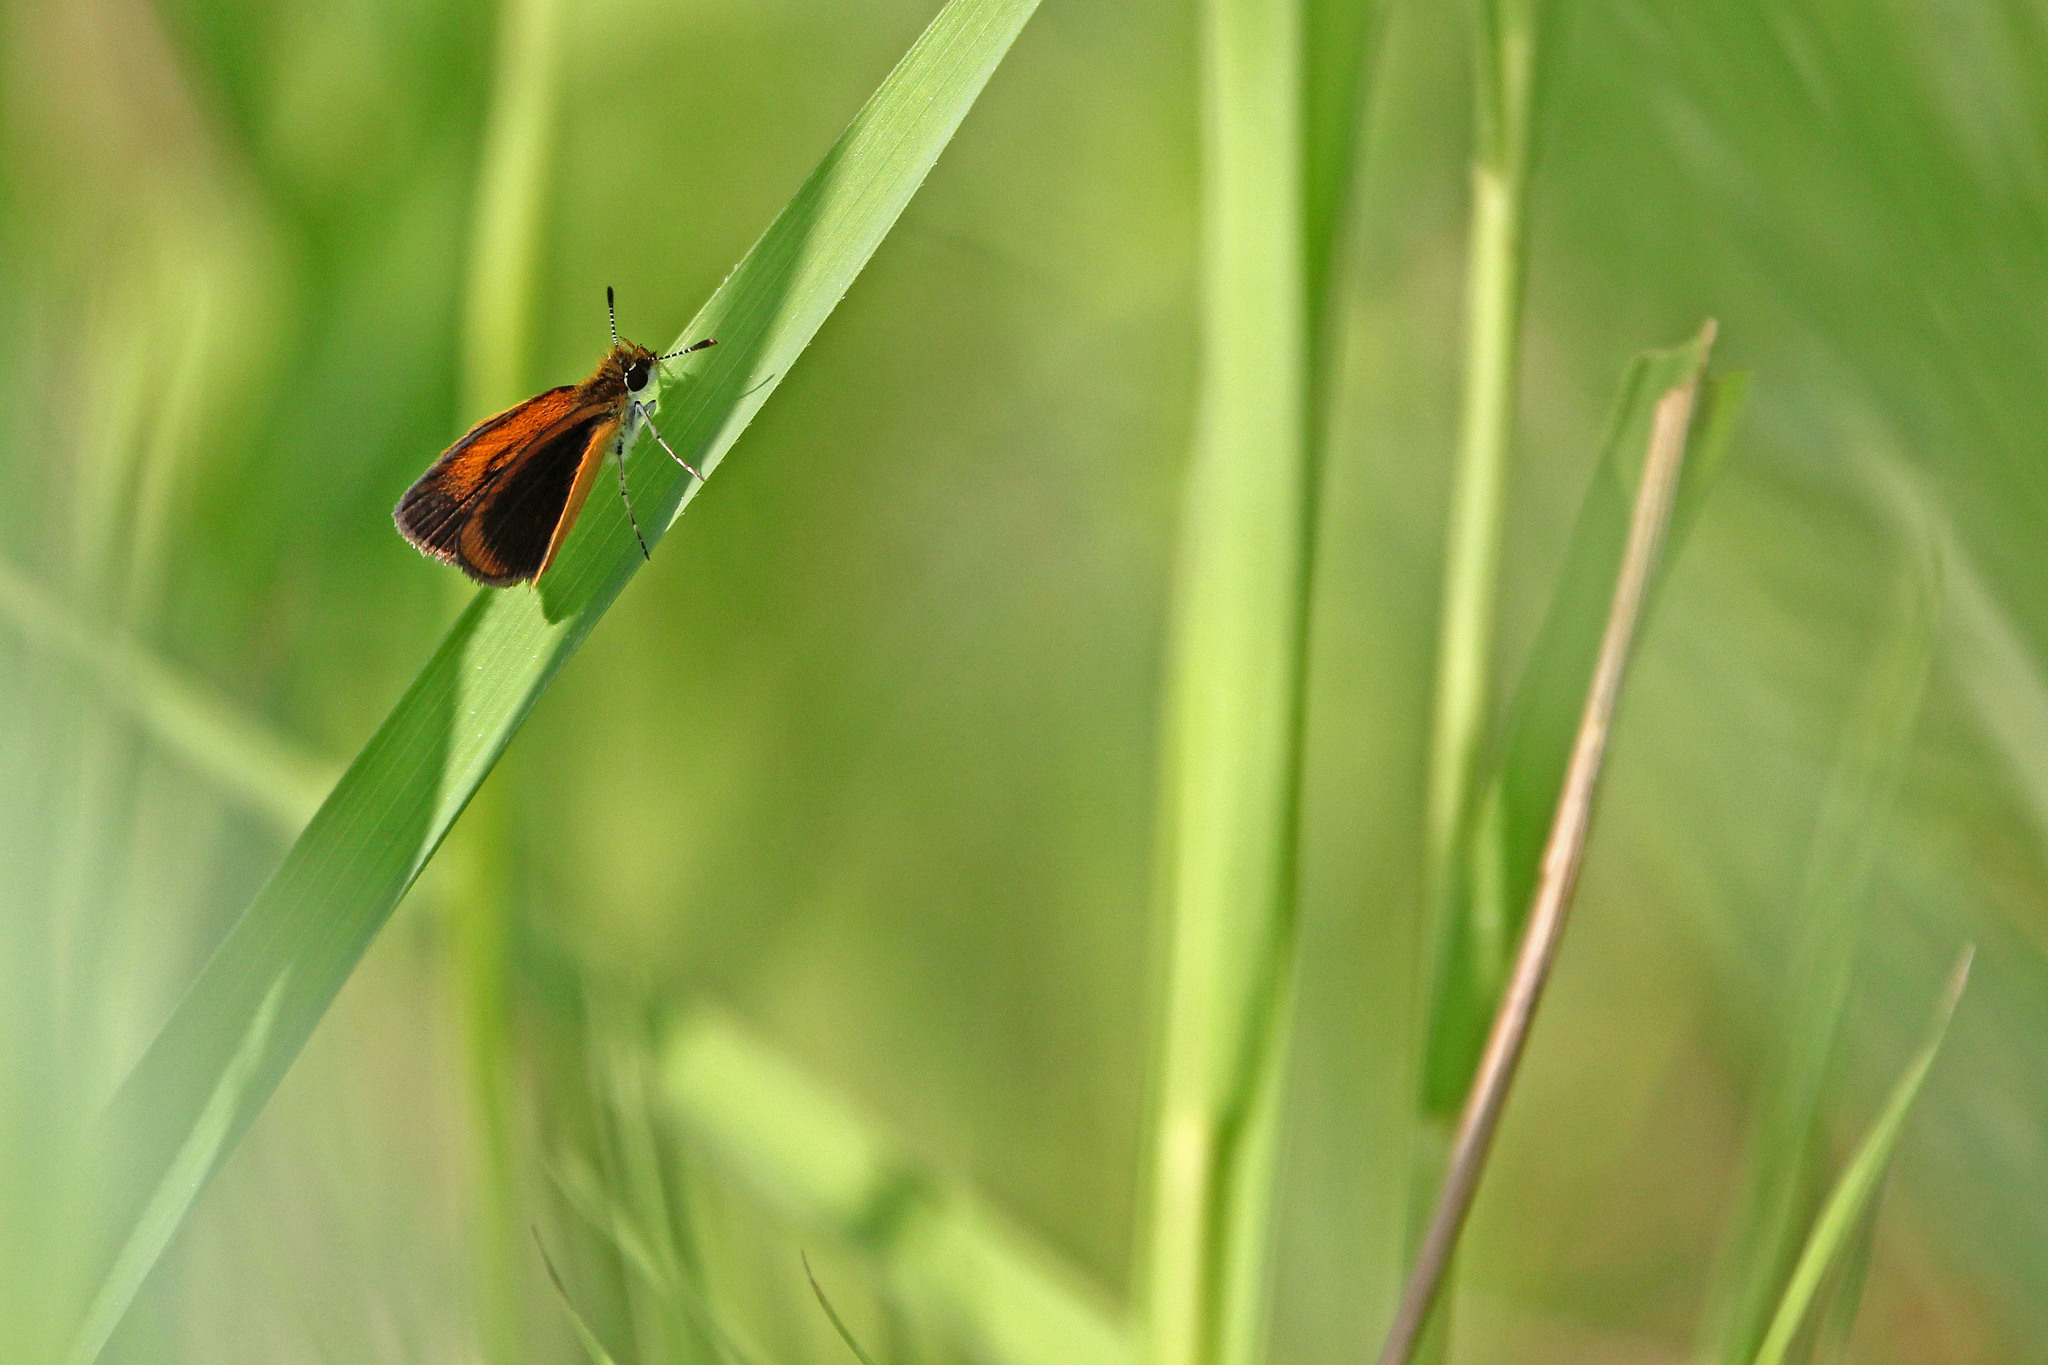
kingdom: Animalia
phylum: Arthropoda
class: Insecta
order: Lepidoptera
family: Hesperiidae
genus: Ancyloxypha
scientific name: Ancyloxypha numitor
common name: Least skipper
